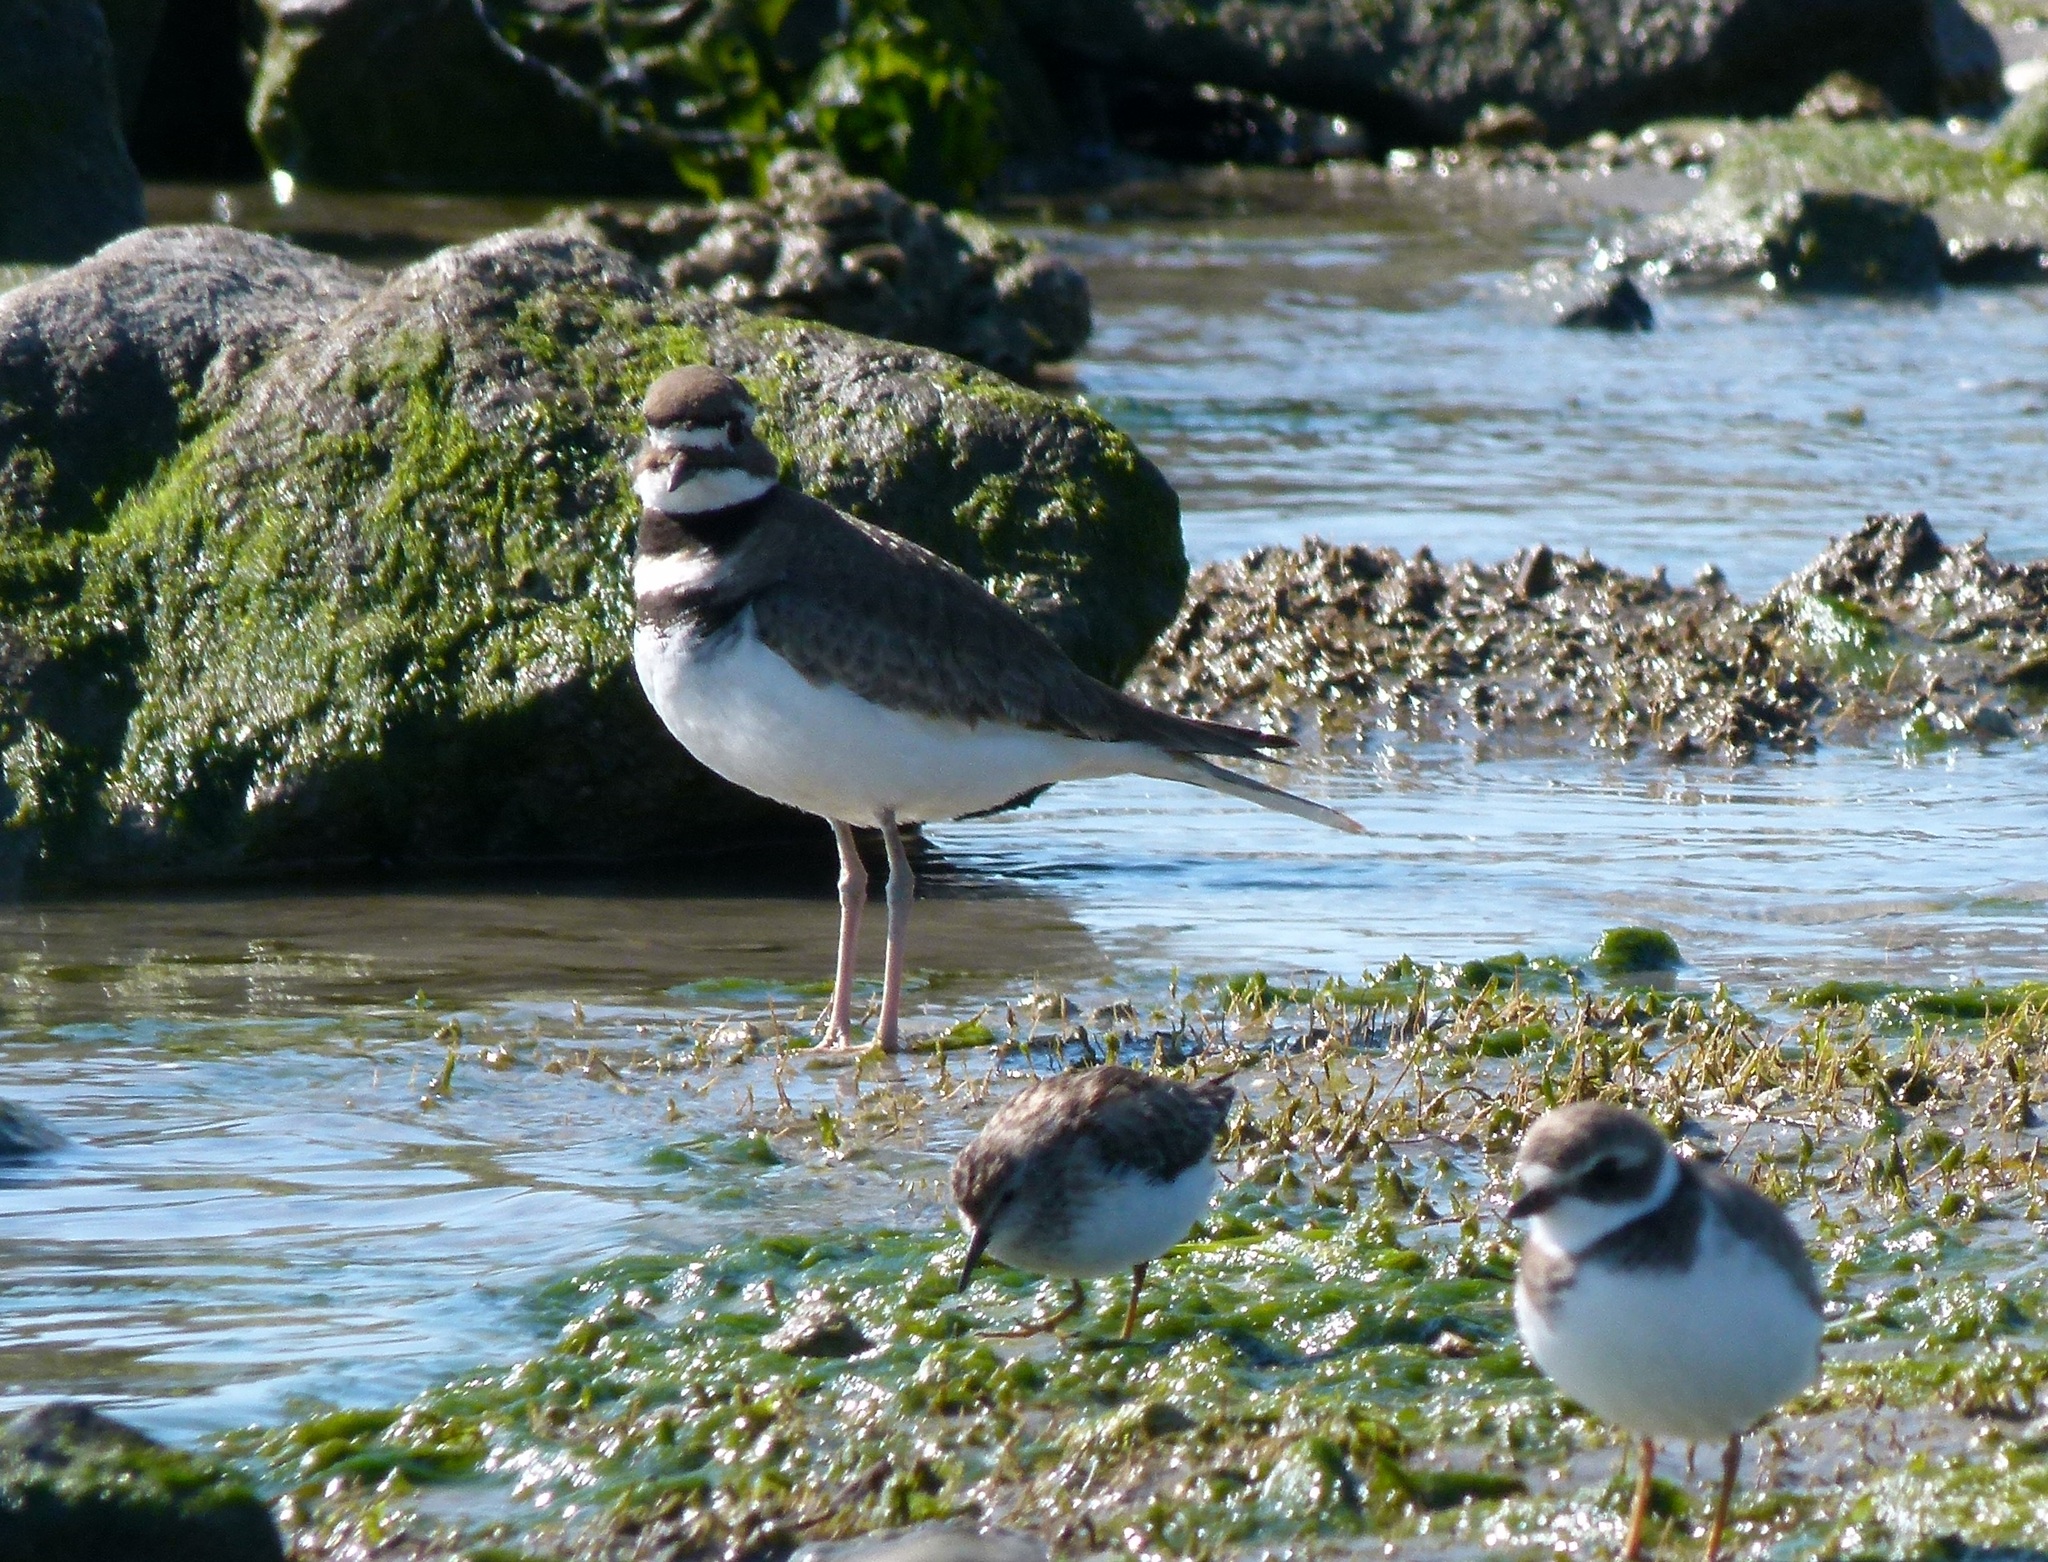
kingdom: Animalia
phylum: Chordata
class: Aves
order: Charadriiformes
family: Charadriidae
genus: Charadrius
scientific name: Charadrius vociferus
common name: Killdeer
